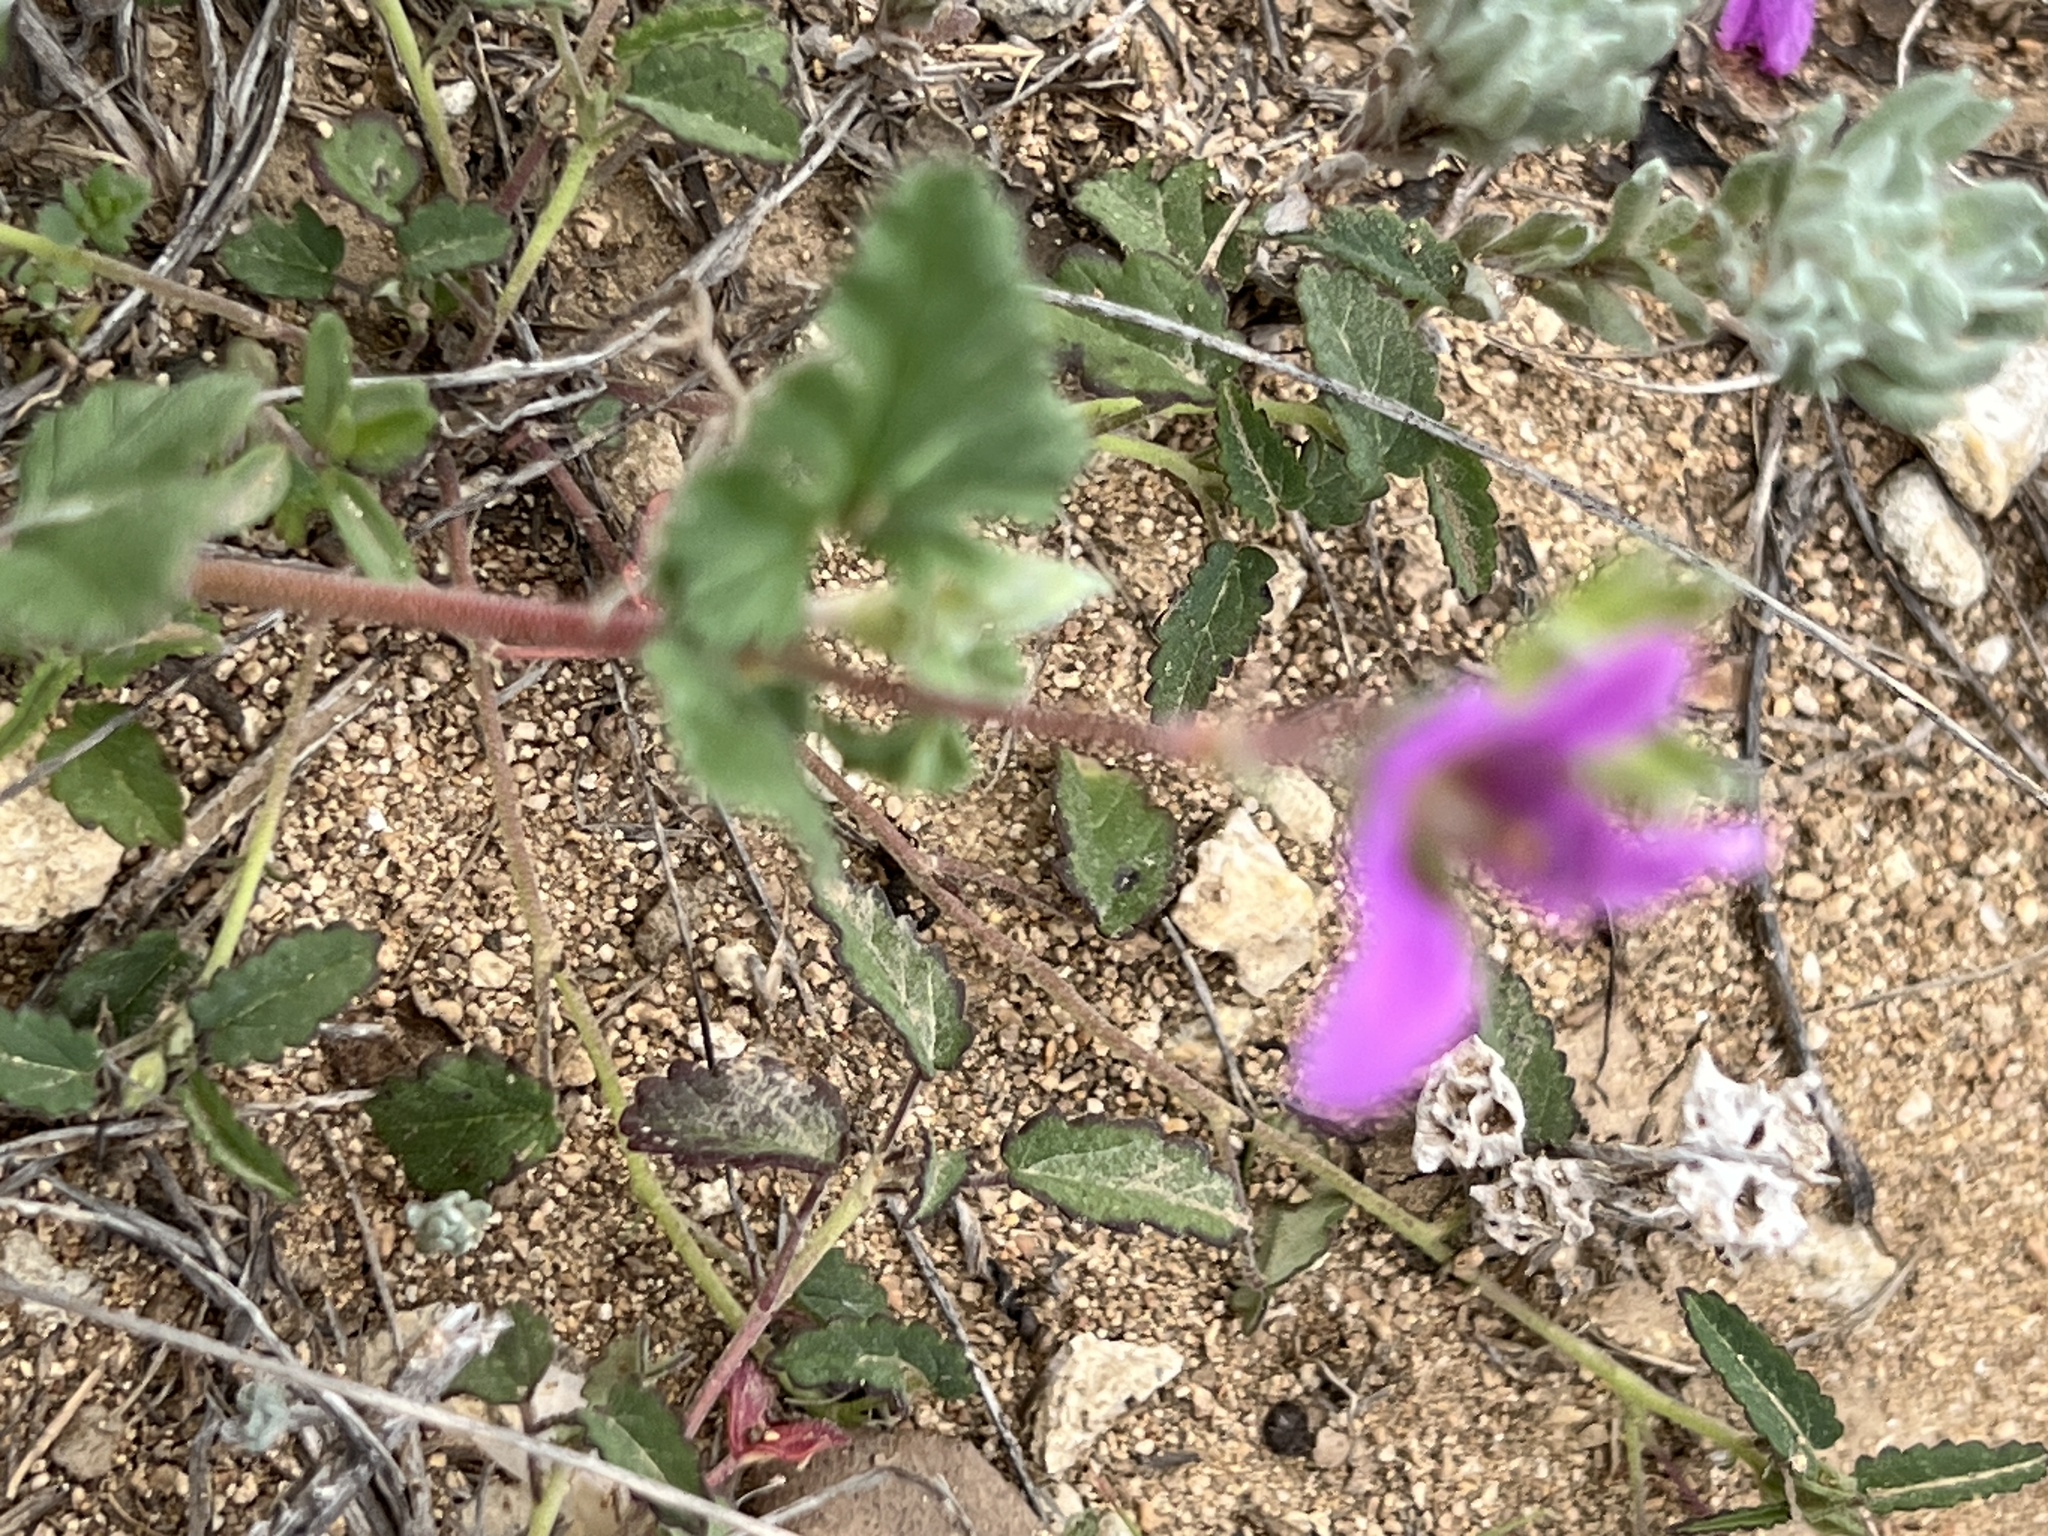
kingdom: Plantae
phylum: Tracheophyta
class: Magnoliopsida
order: Geraniales
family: Geraniaceae
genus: Erodium
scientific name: Erodium texanum
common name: Texas stork's-bill
